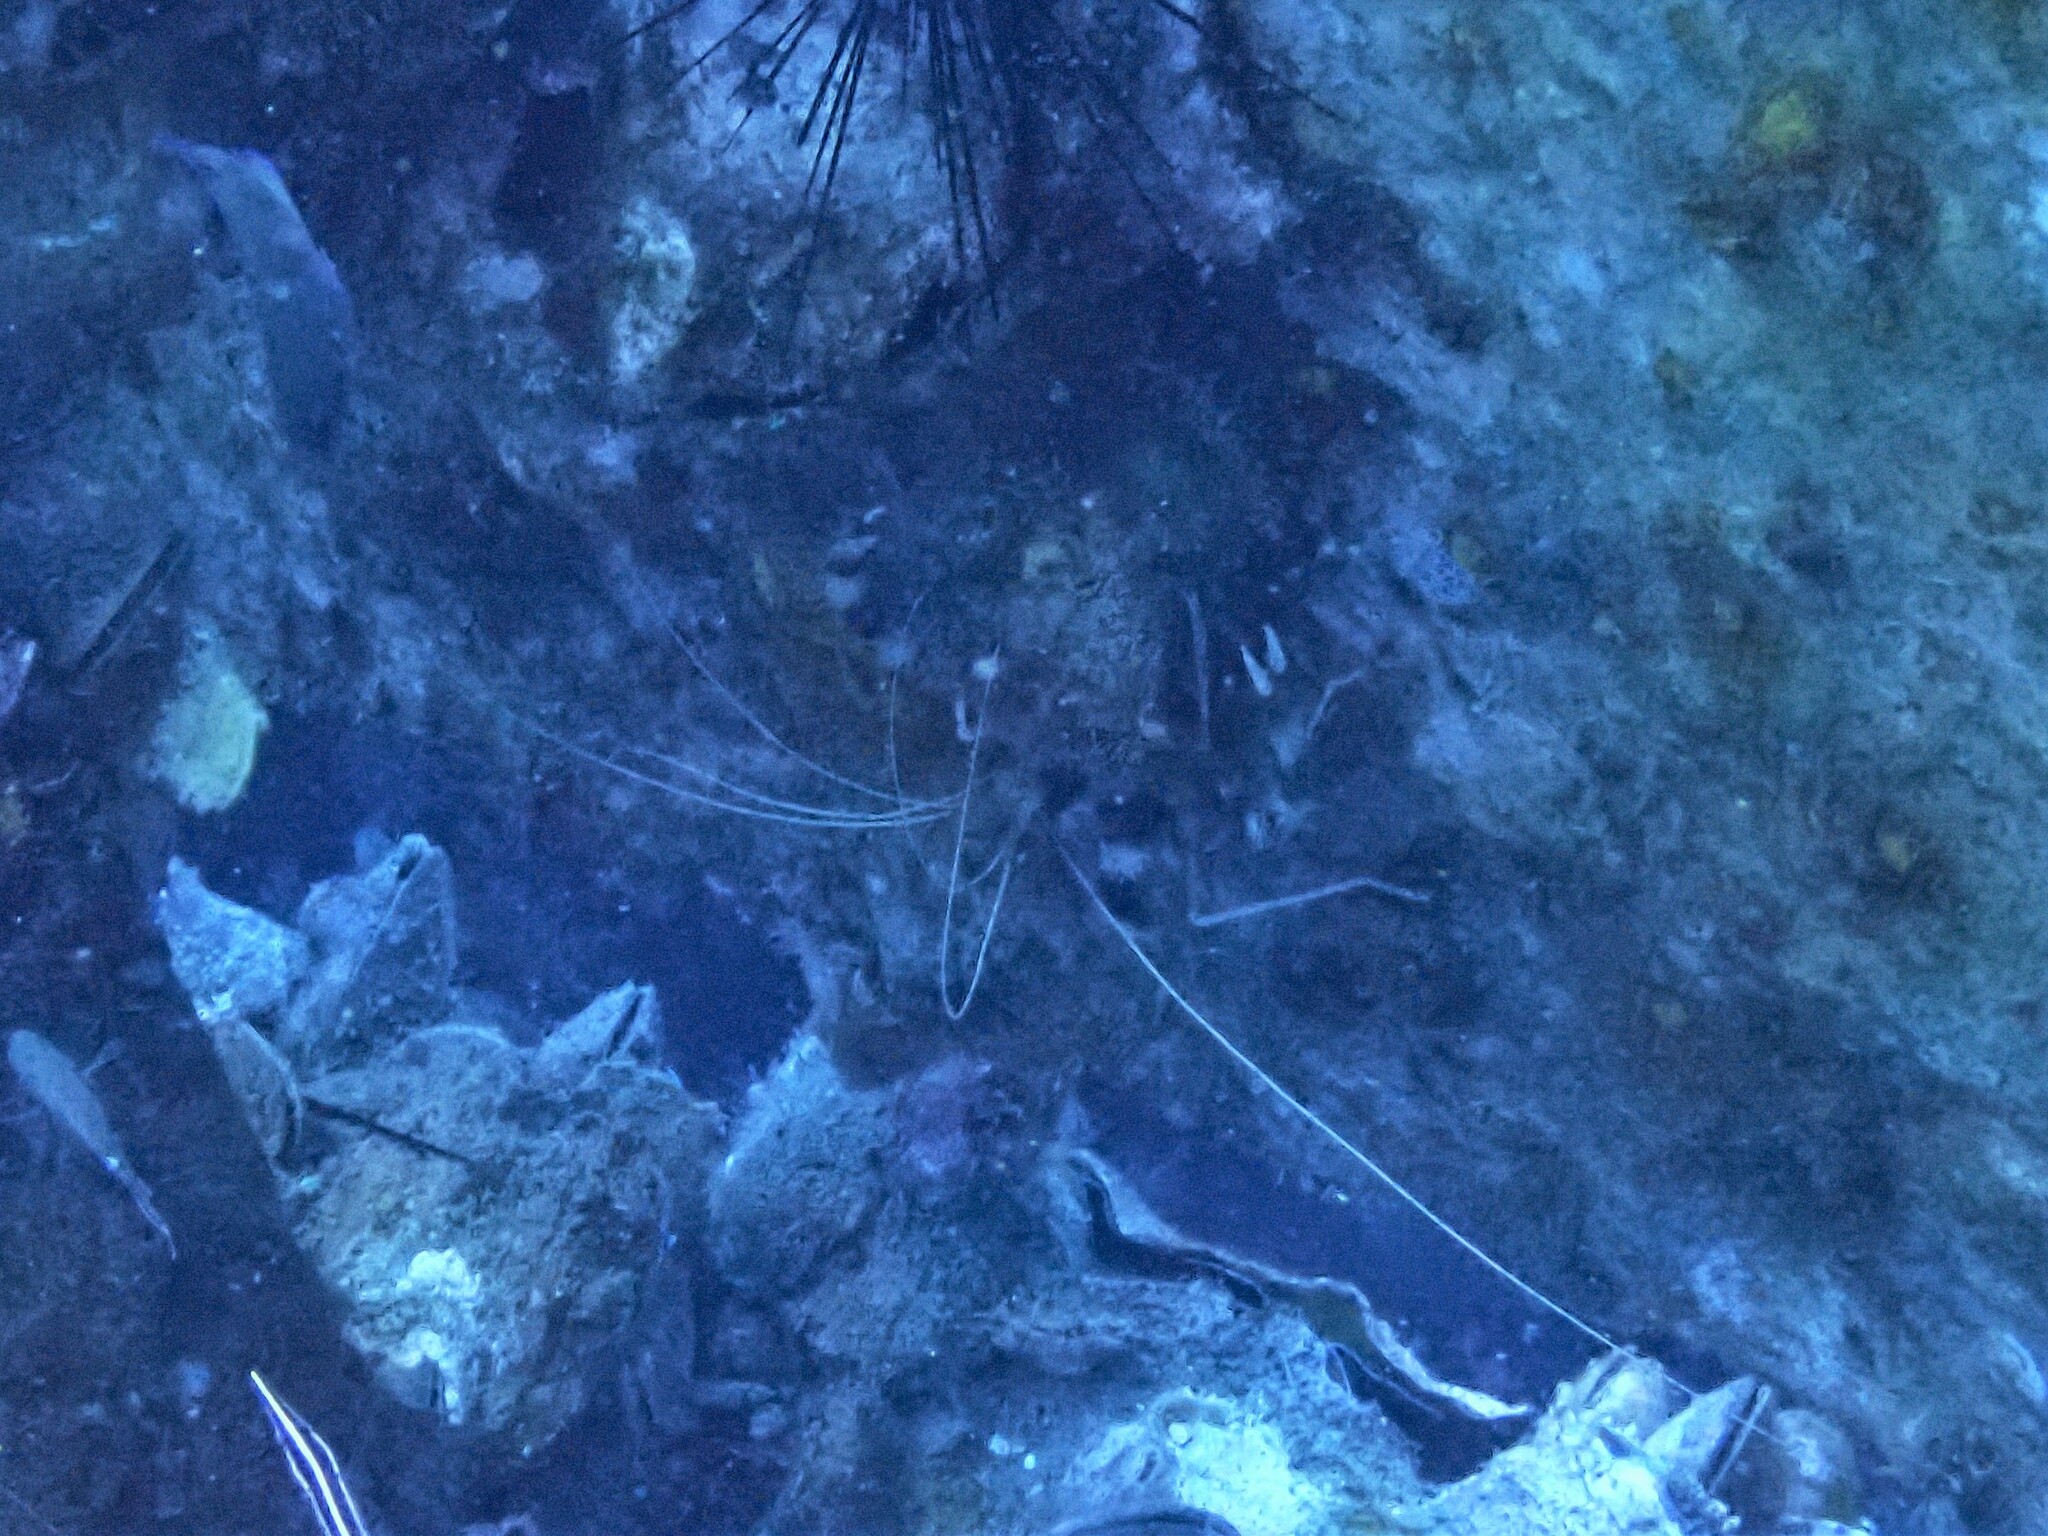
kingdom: Animalia
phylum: Arthropoda
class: Malacostraca
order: Decapoda
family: Stenopodidae
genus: Stenopus
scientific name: Stenopus hispidus
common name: Banded coral shrimp
